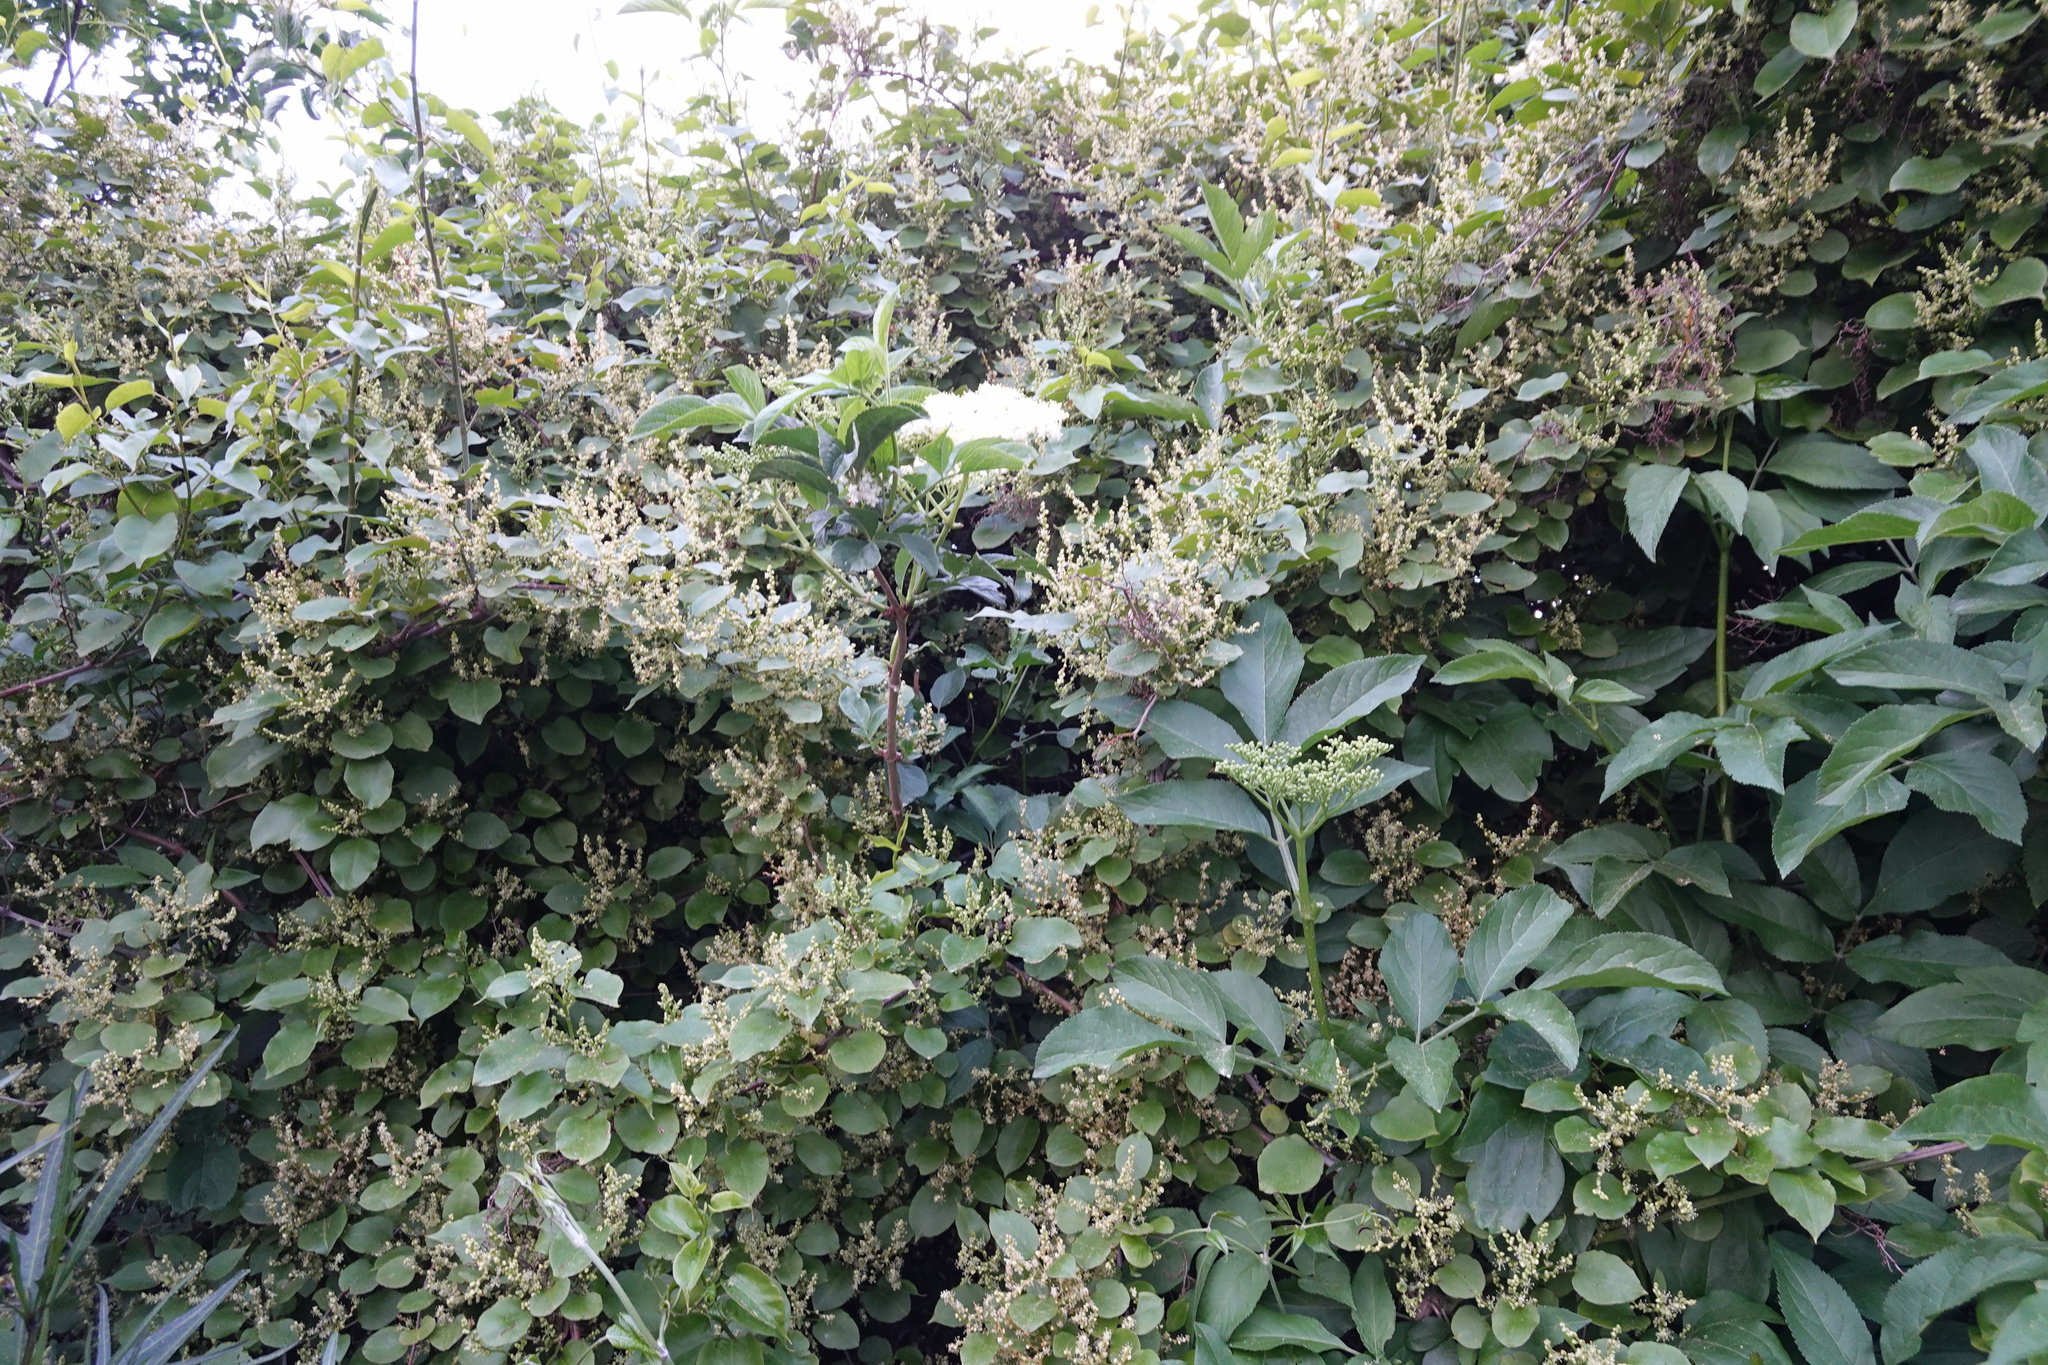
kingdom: Plantae
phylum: Tracheophyta
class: Magnoliopsida
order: Caryophyllales
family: Polygonaceae
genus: Muehlenbeckia
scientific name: Muehlenbeckia australis
